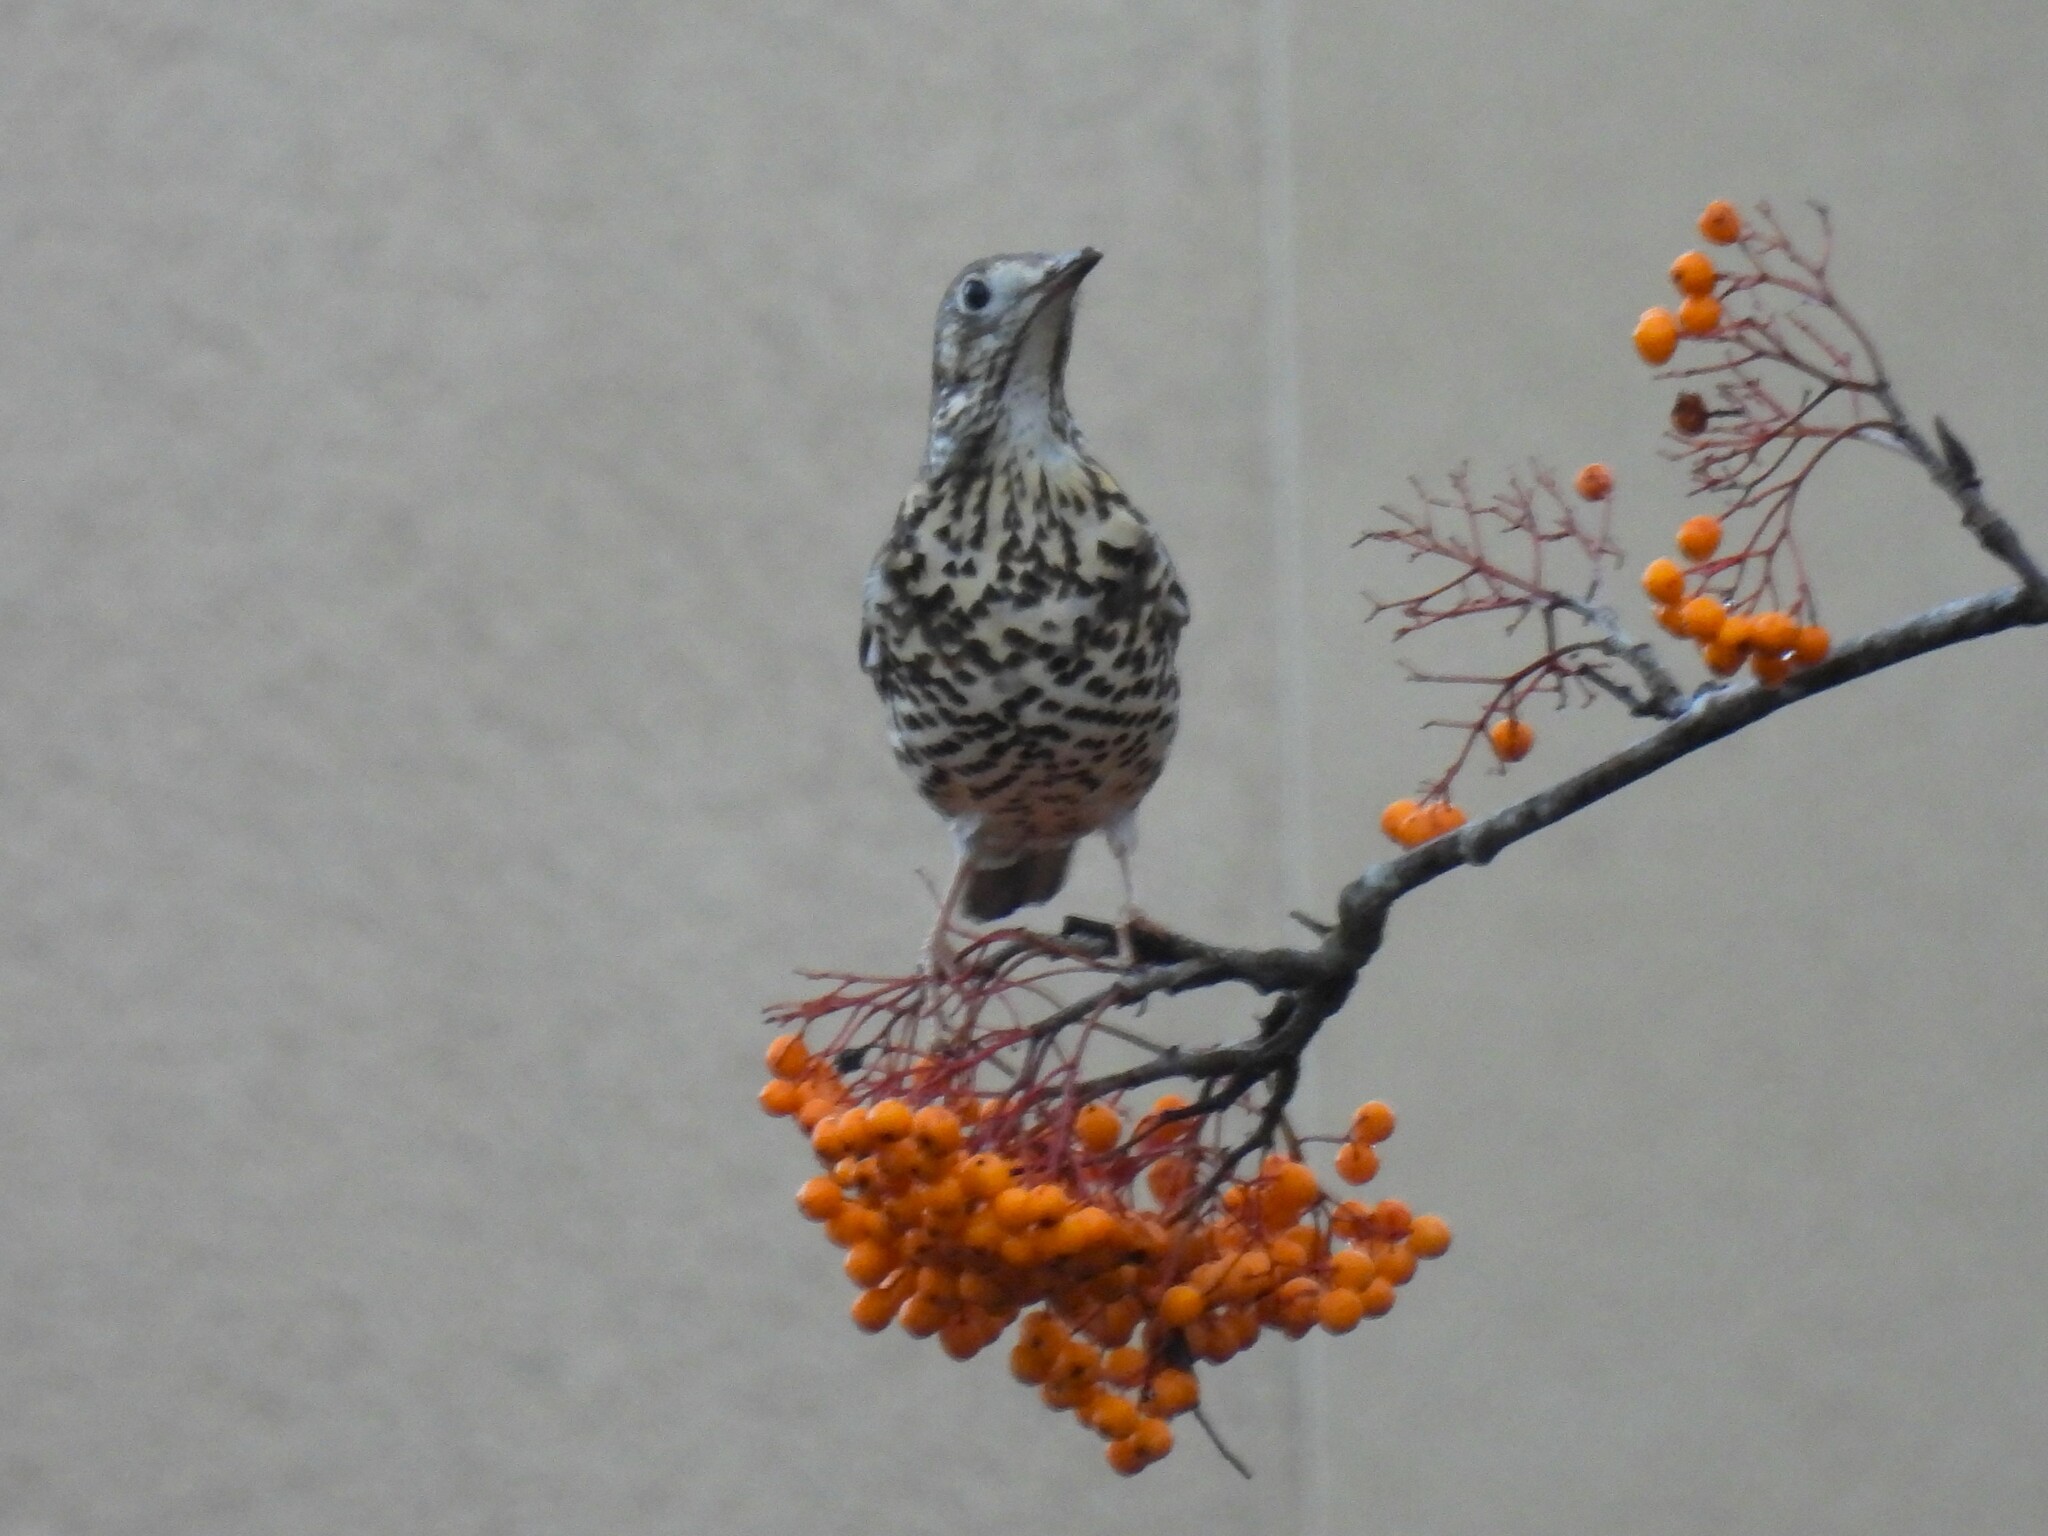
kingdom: Animalia
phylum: Chordata
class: Aves
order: Passeriformes
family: Turdidae
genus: Turdus
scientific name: Turdus viscivorus
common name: Mistle thrush
